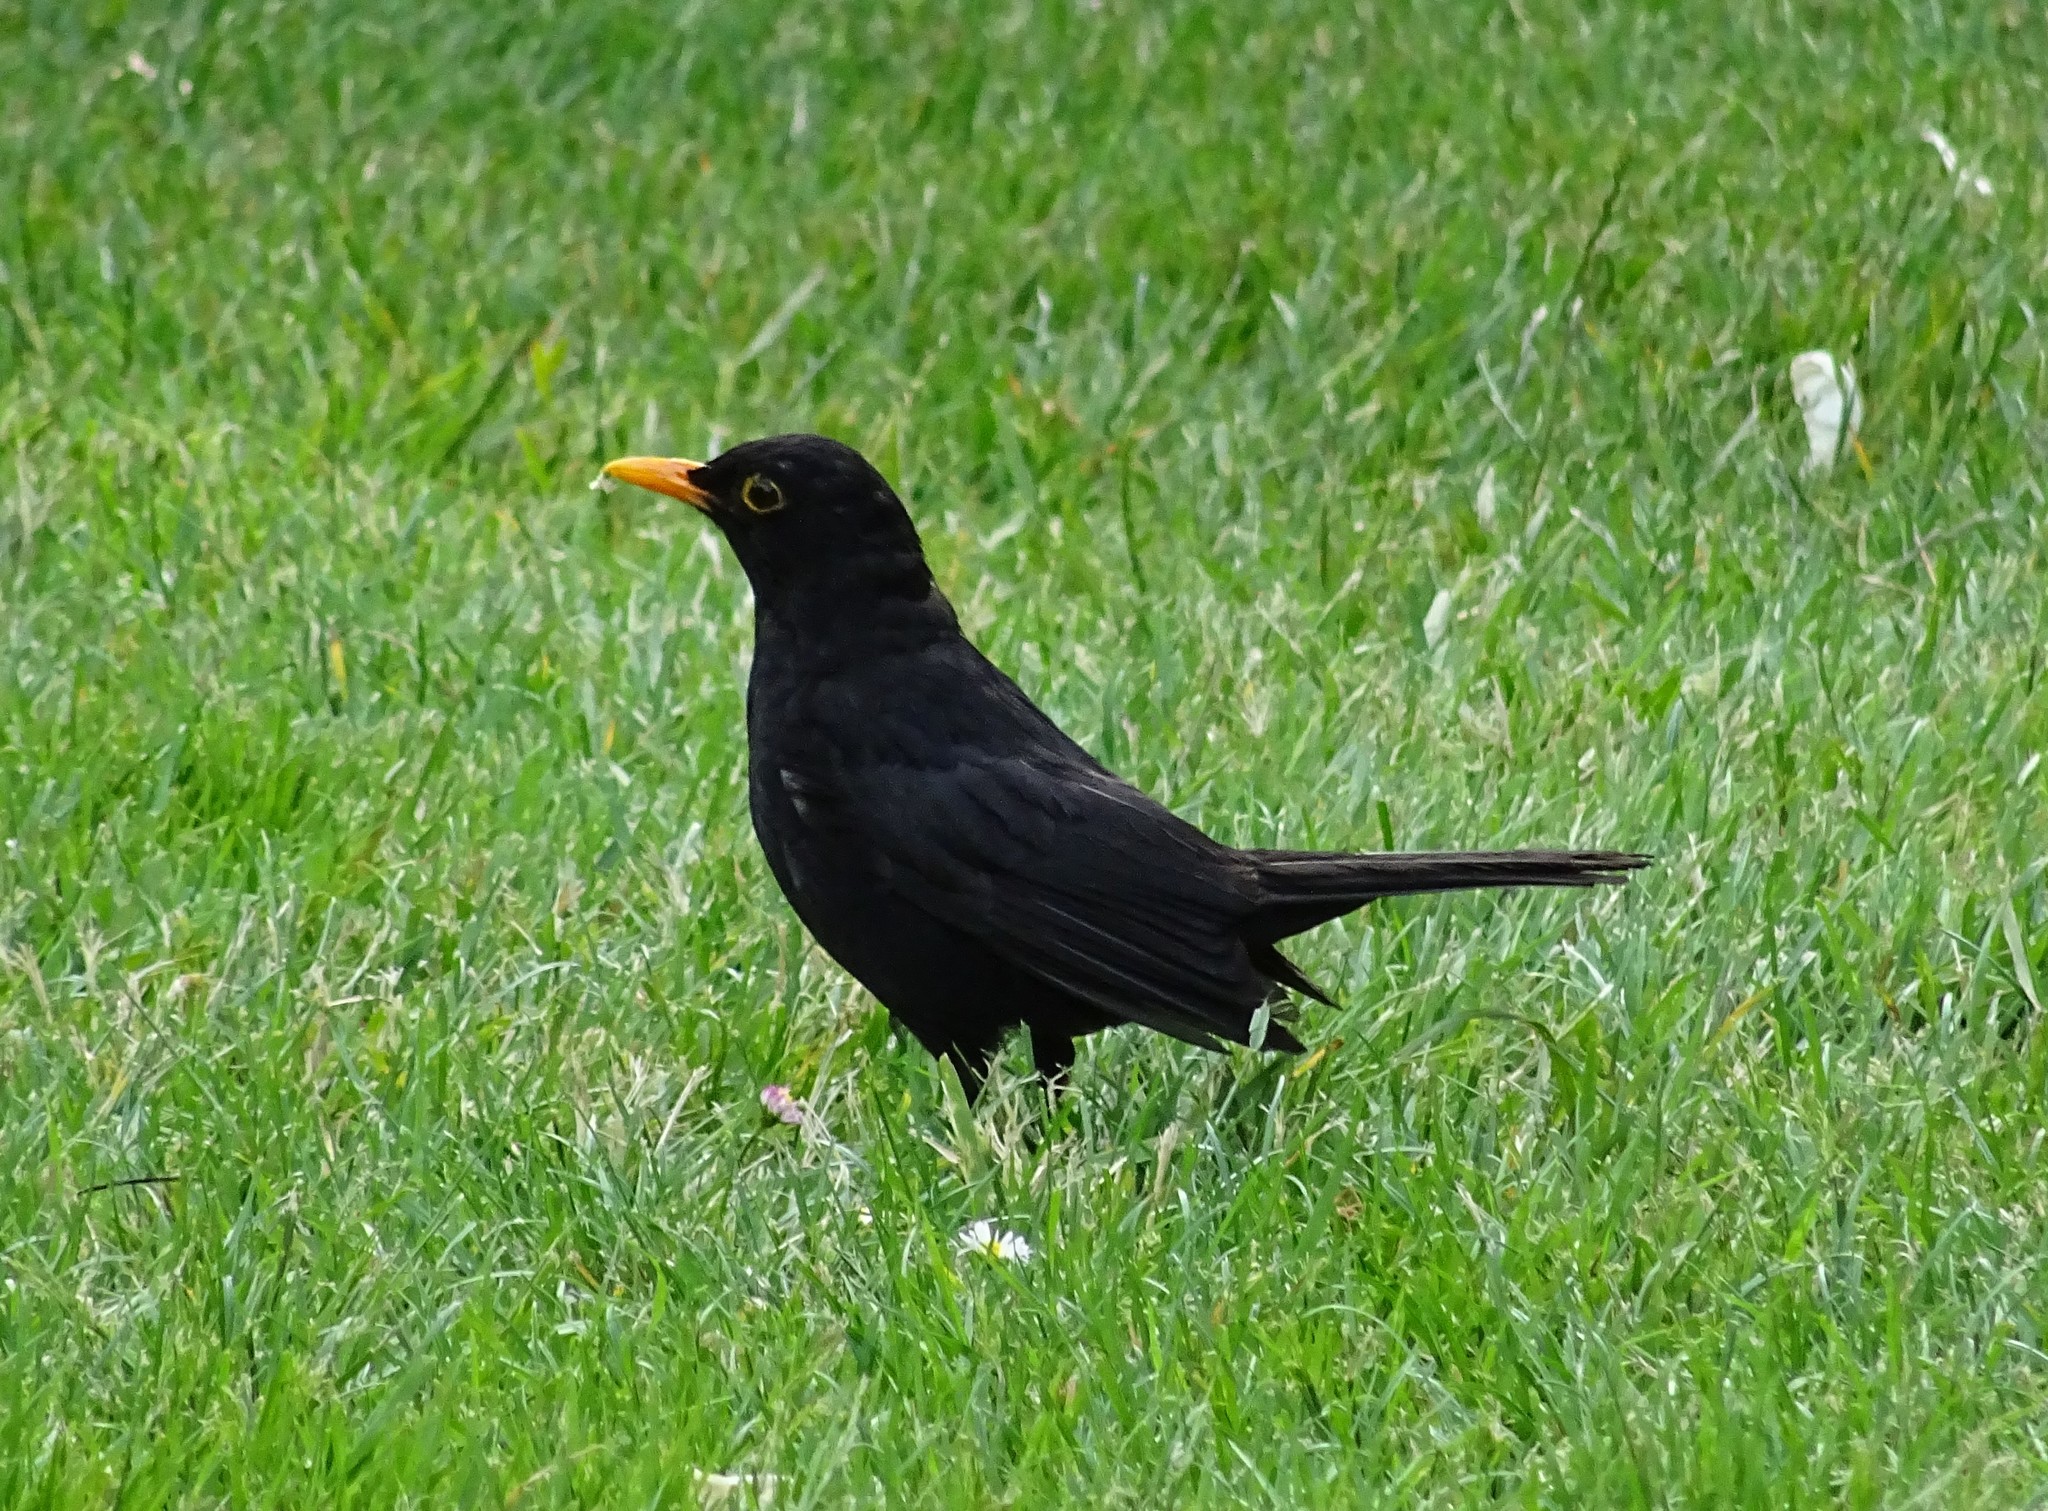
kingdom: Animalia
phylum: Chordata
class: Aves
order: Passeriformes
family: Turdidae
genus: Turdus
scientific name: Turdus merula
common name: Common blackbird
